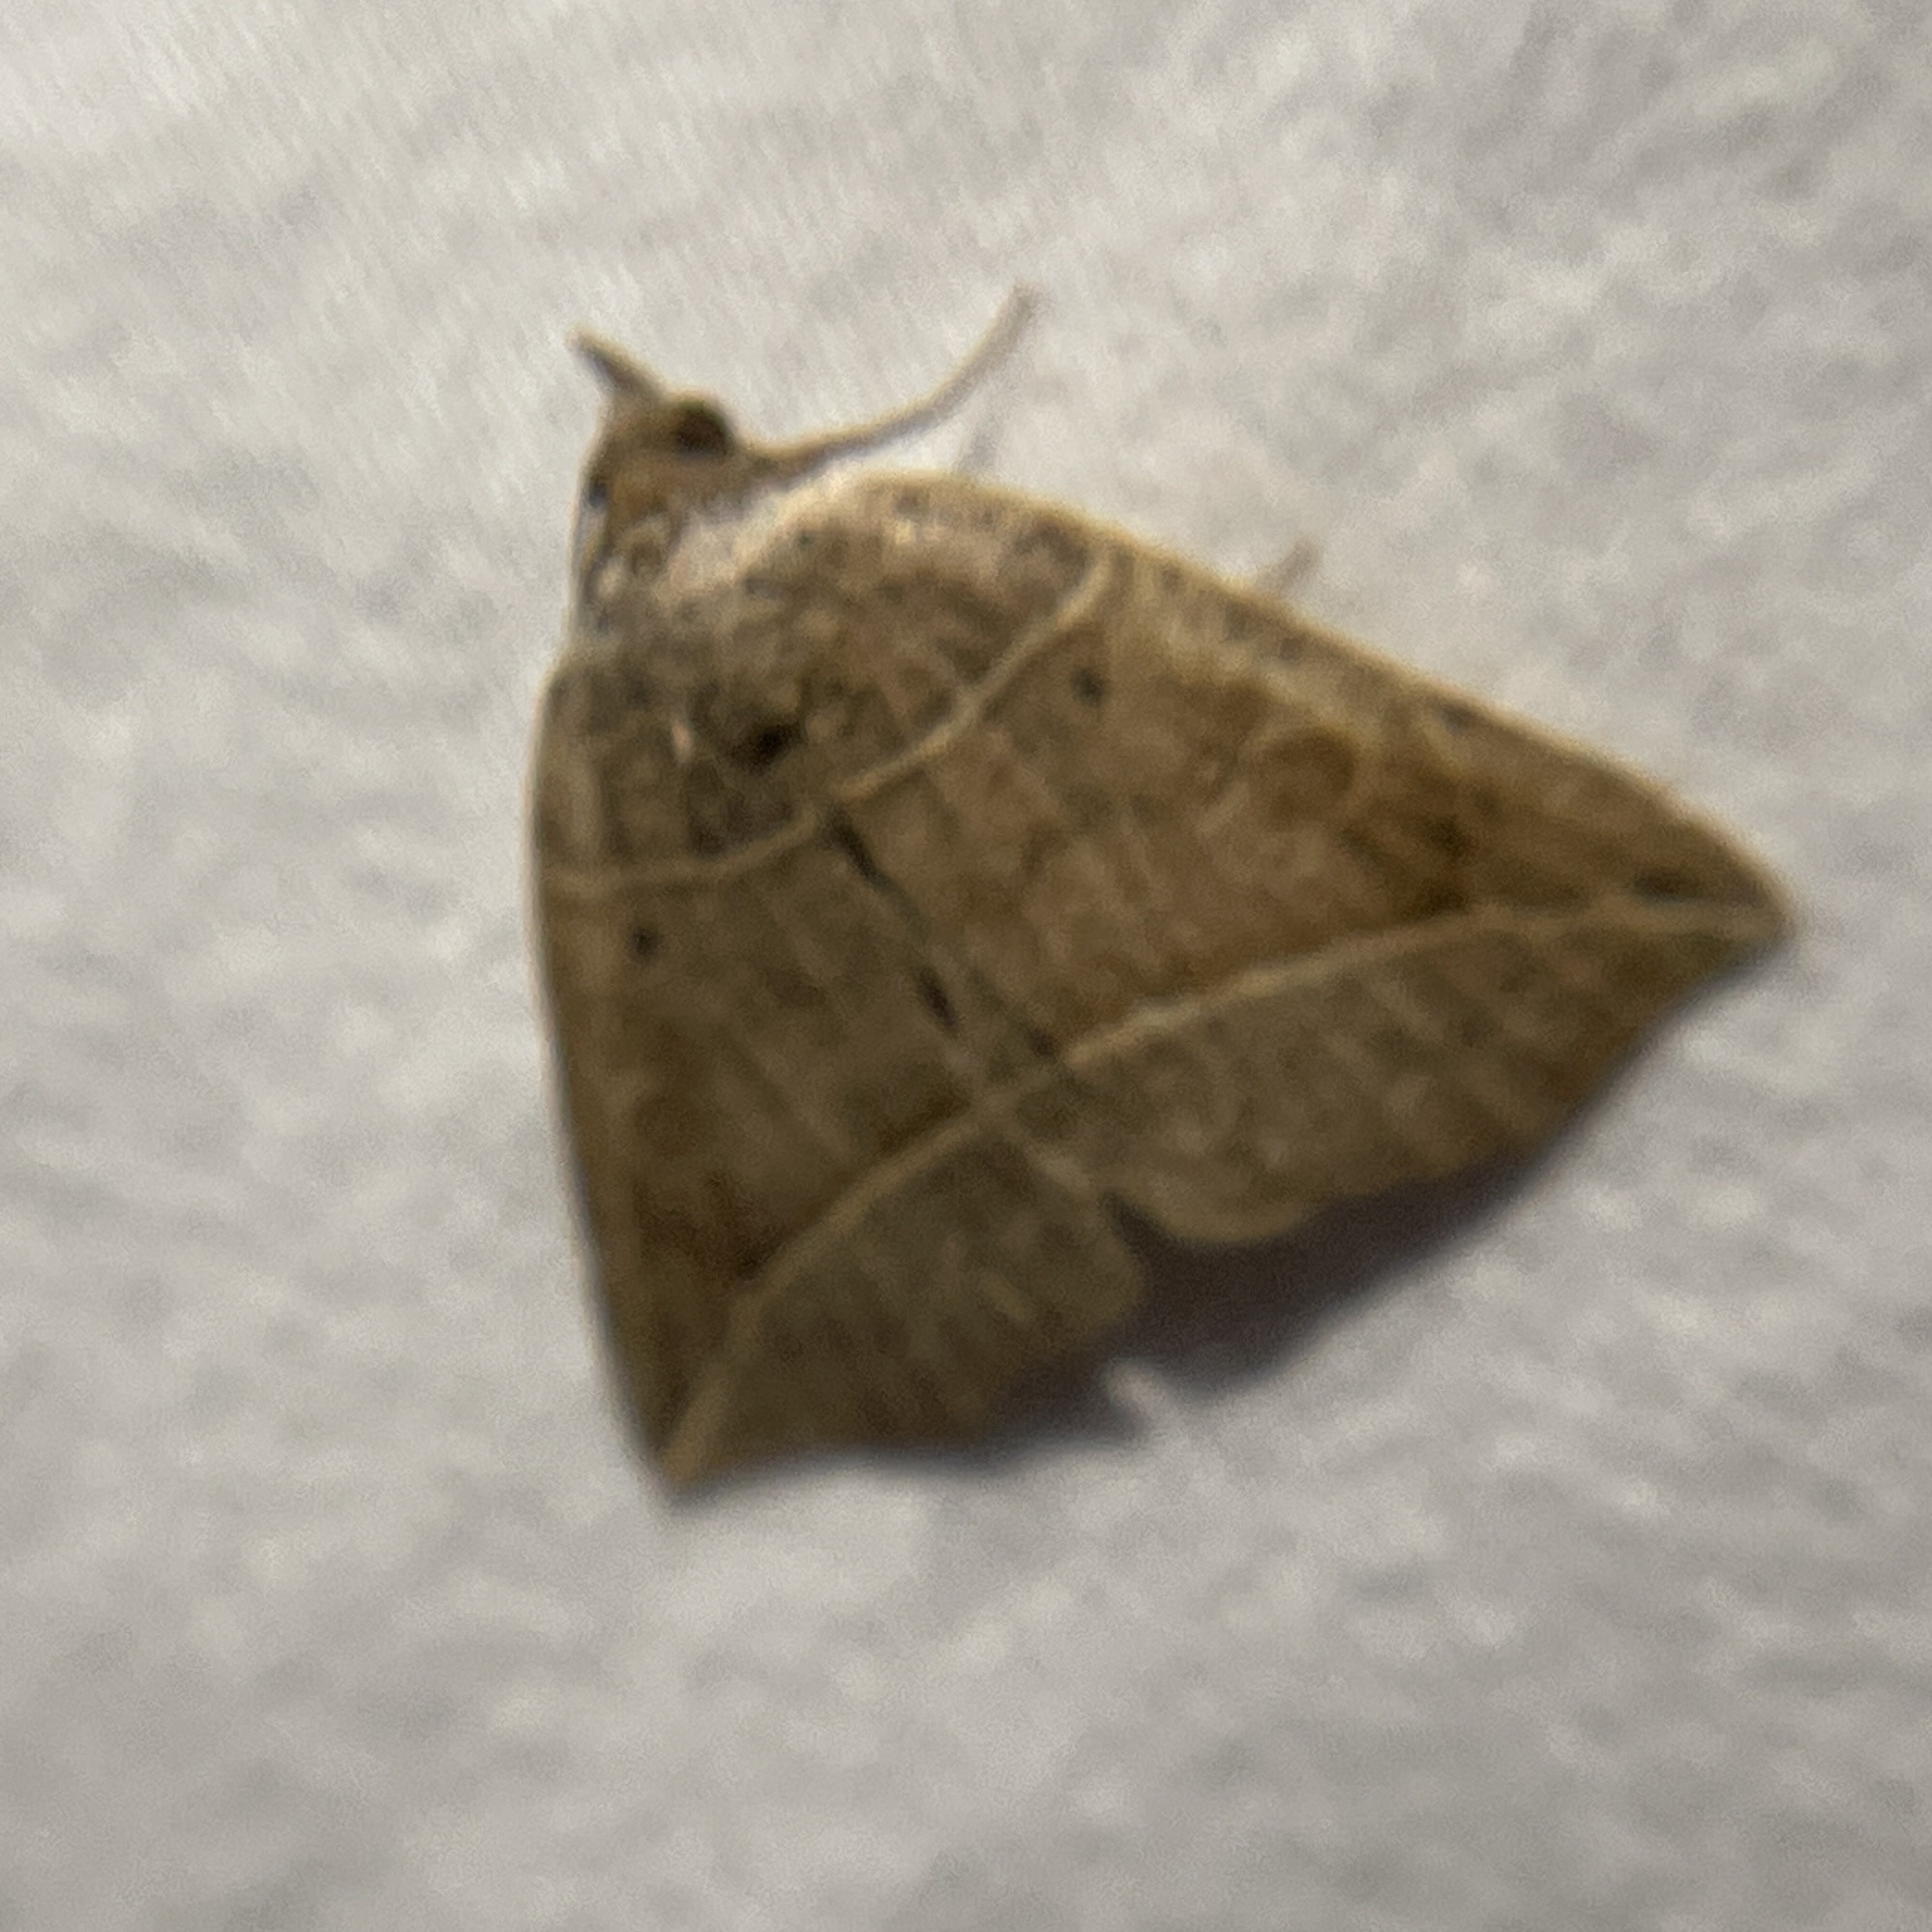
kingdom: Animalia
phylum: Arthropoda
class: Insecta
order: Lepidoptera
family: Erebidae
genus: Isogona
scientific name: Isogona tenuis
